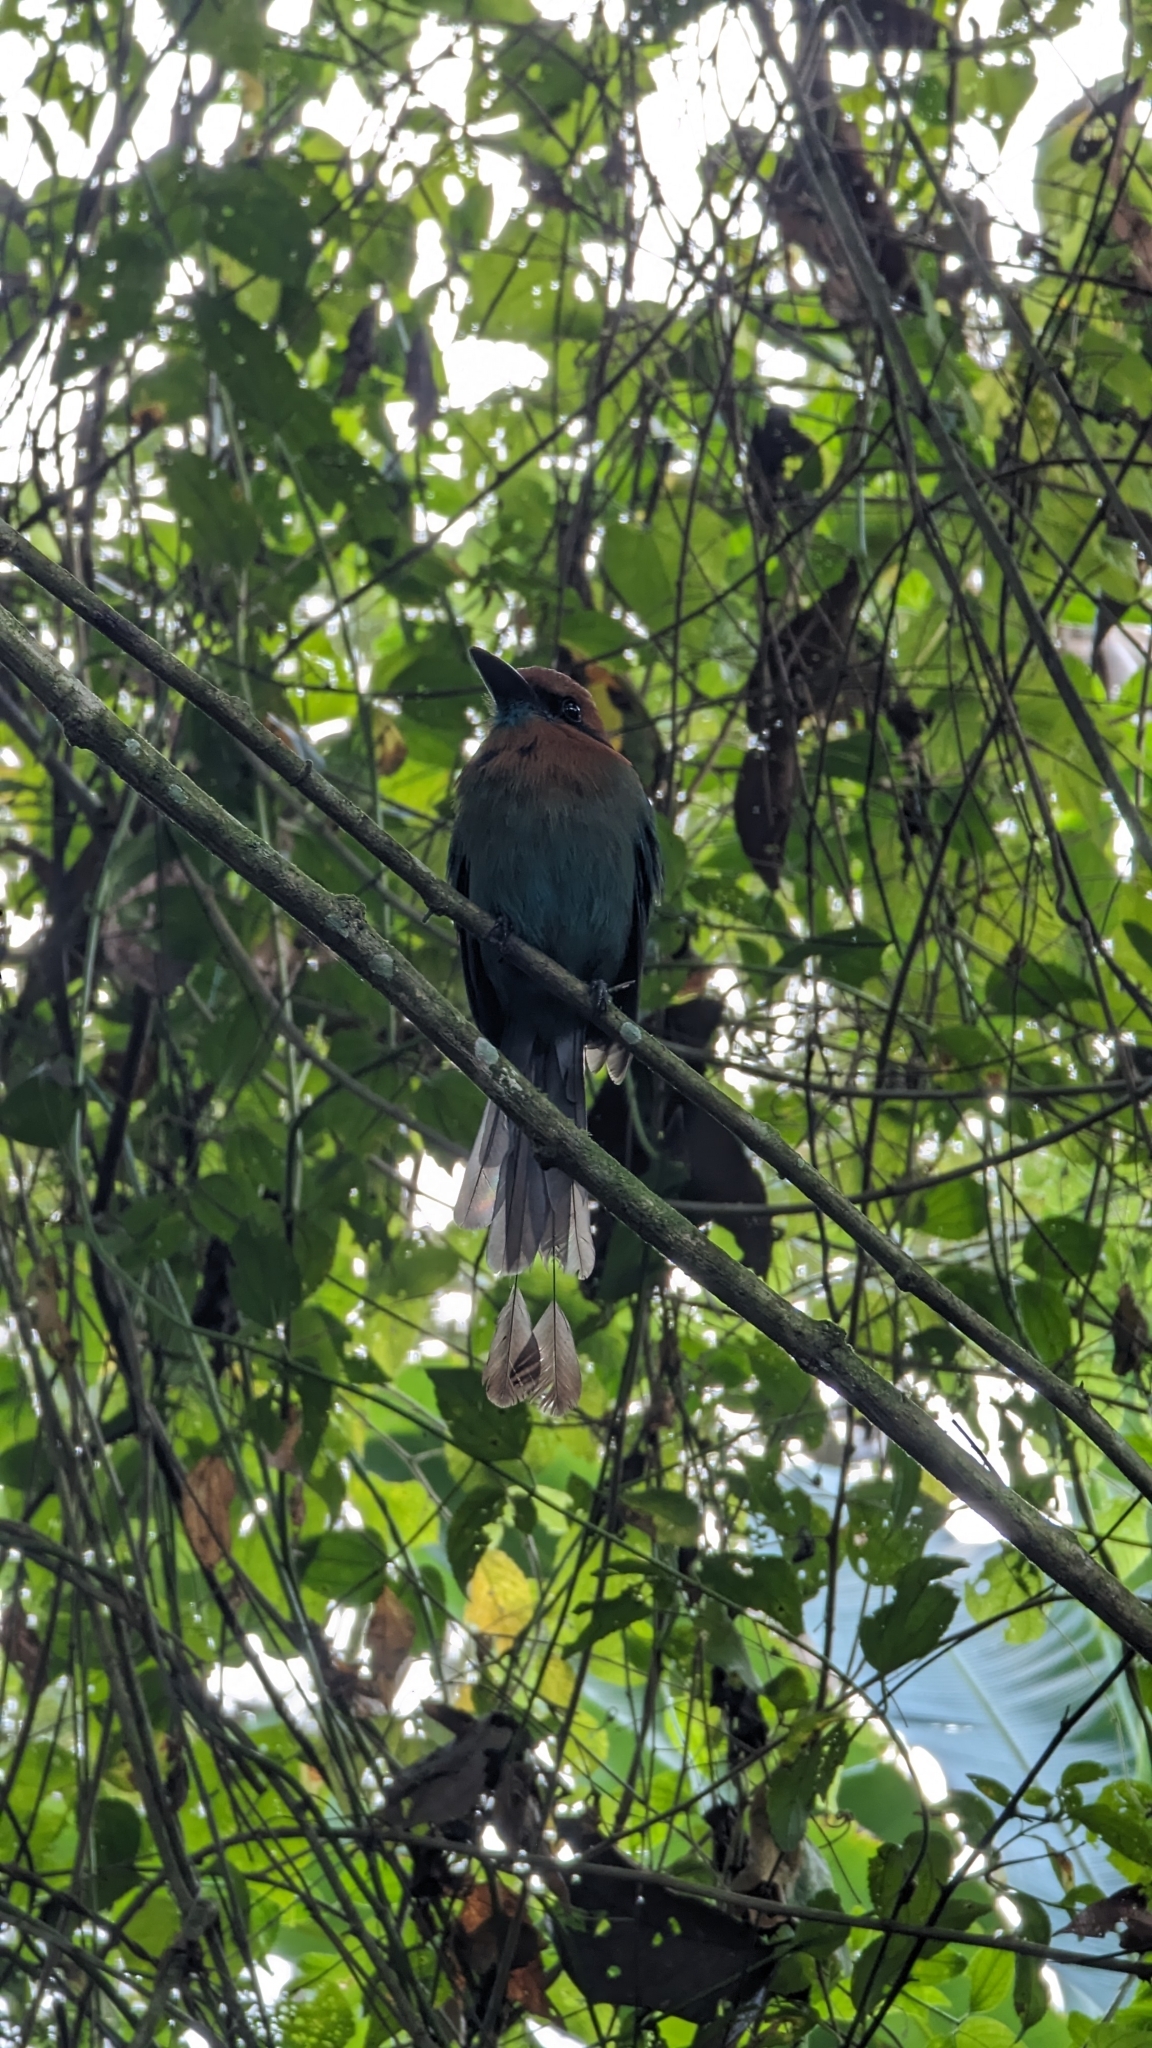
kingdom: Animalia
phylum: Chordata
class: Aves
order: Coraciiformes
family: Momotidae
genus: Electron
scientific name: Electron platyrhynchum
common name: Broad-billed motmot
